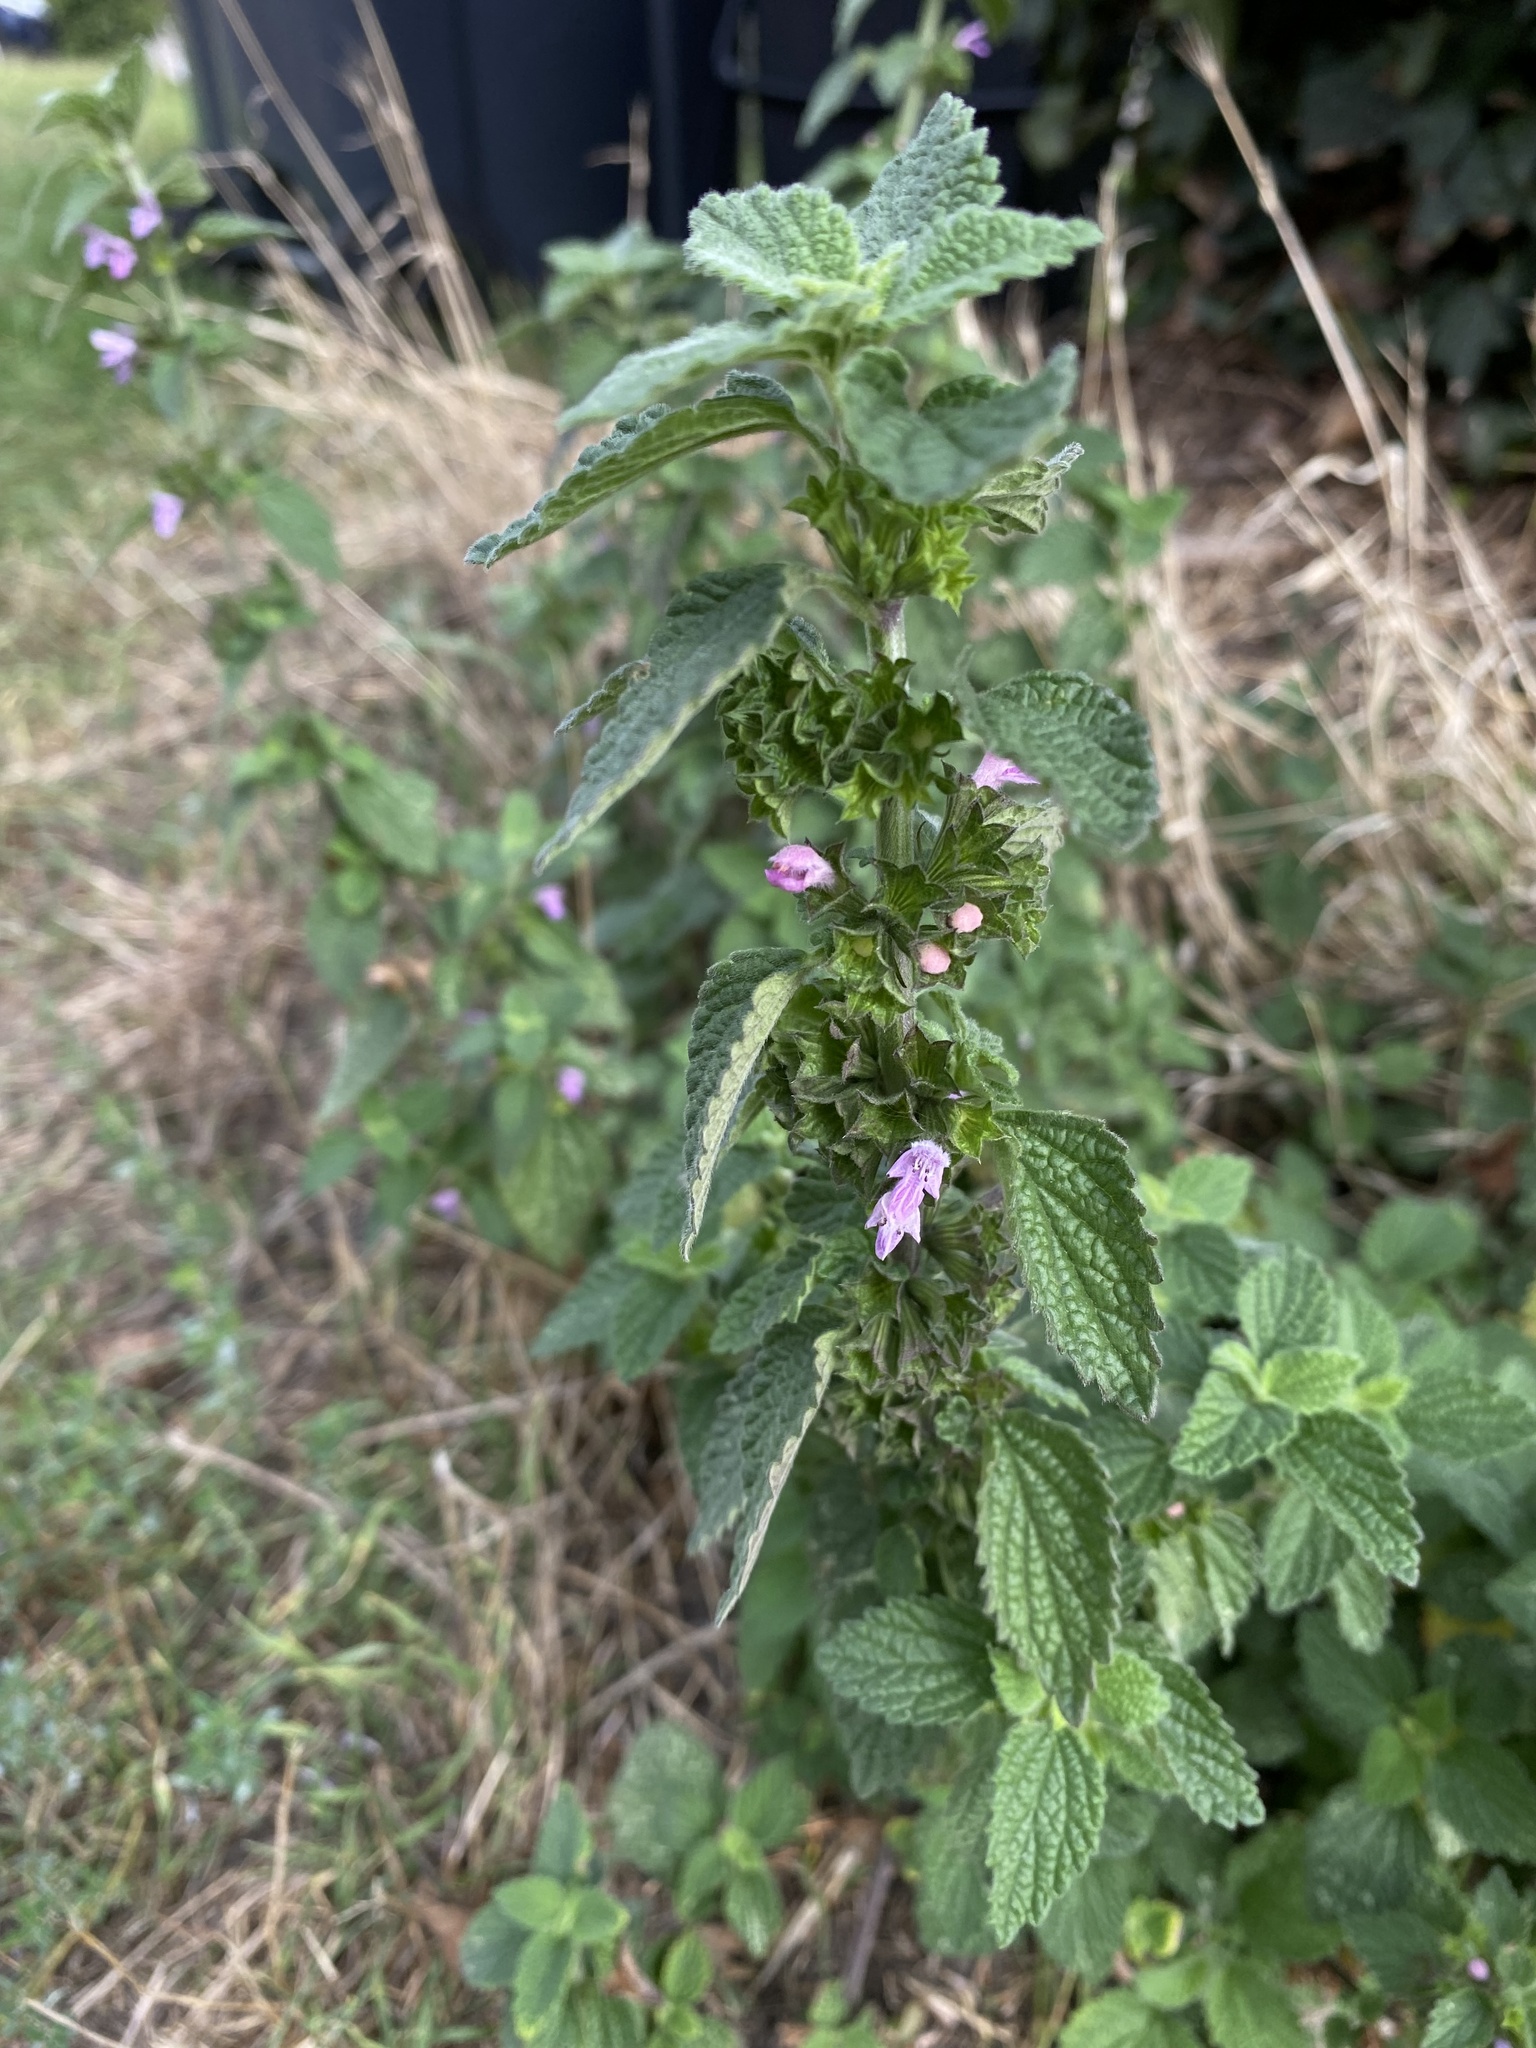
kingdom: Plantae
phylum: Tracheophyta
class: Magnoliopsida
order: Lamiales
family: Lamiaceae
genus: Ballota
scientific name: Ballota nigra
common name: Black horehound
